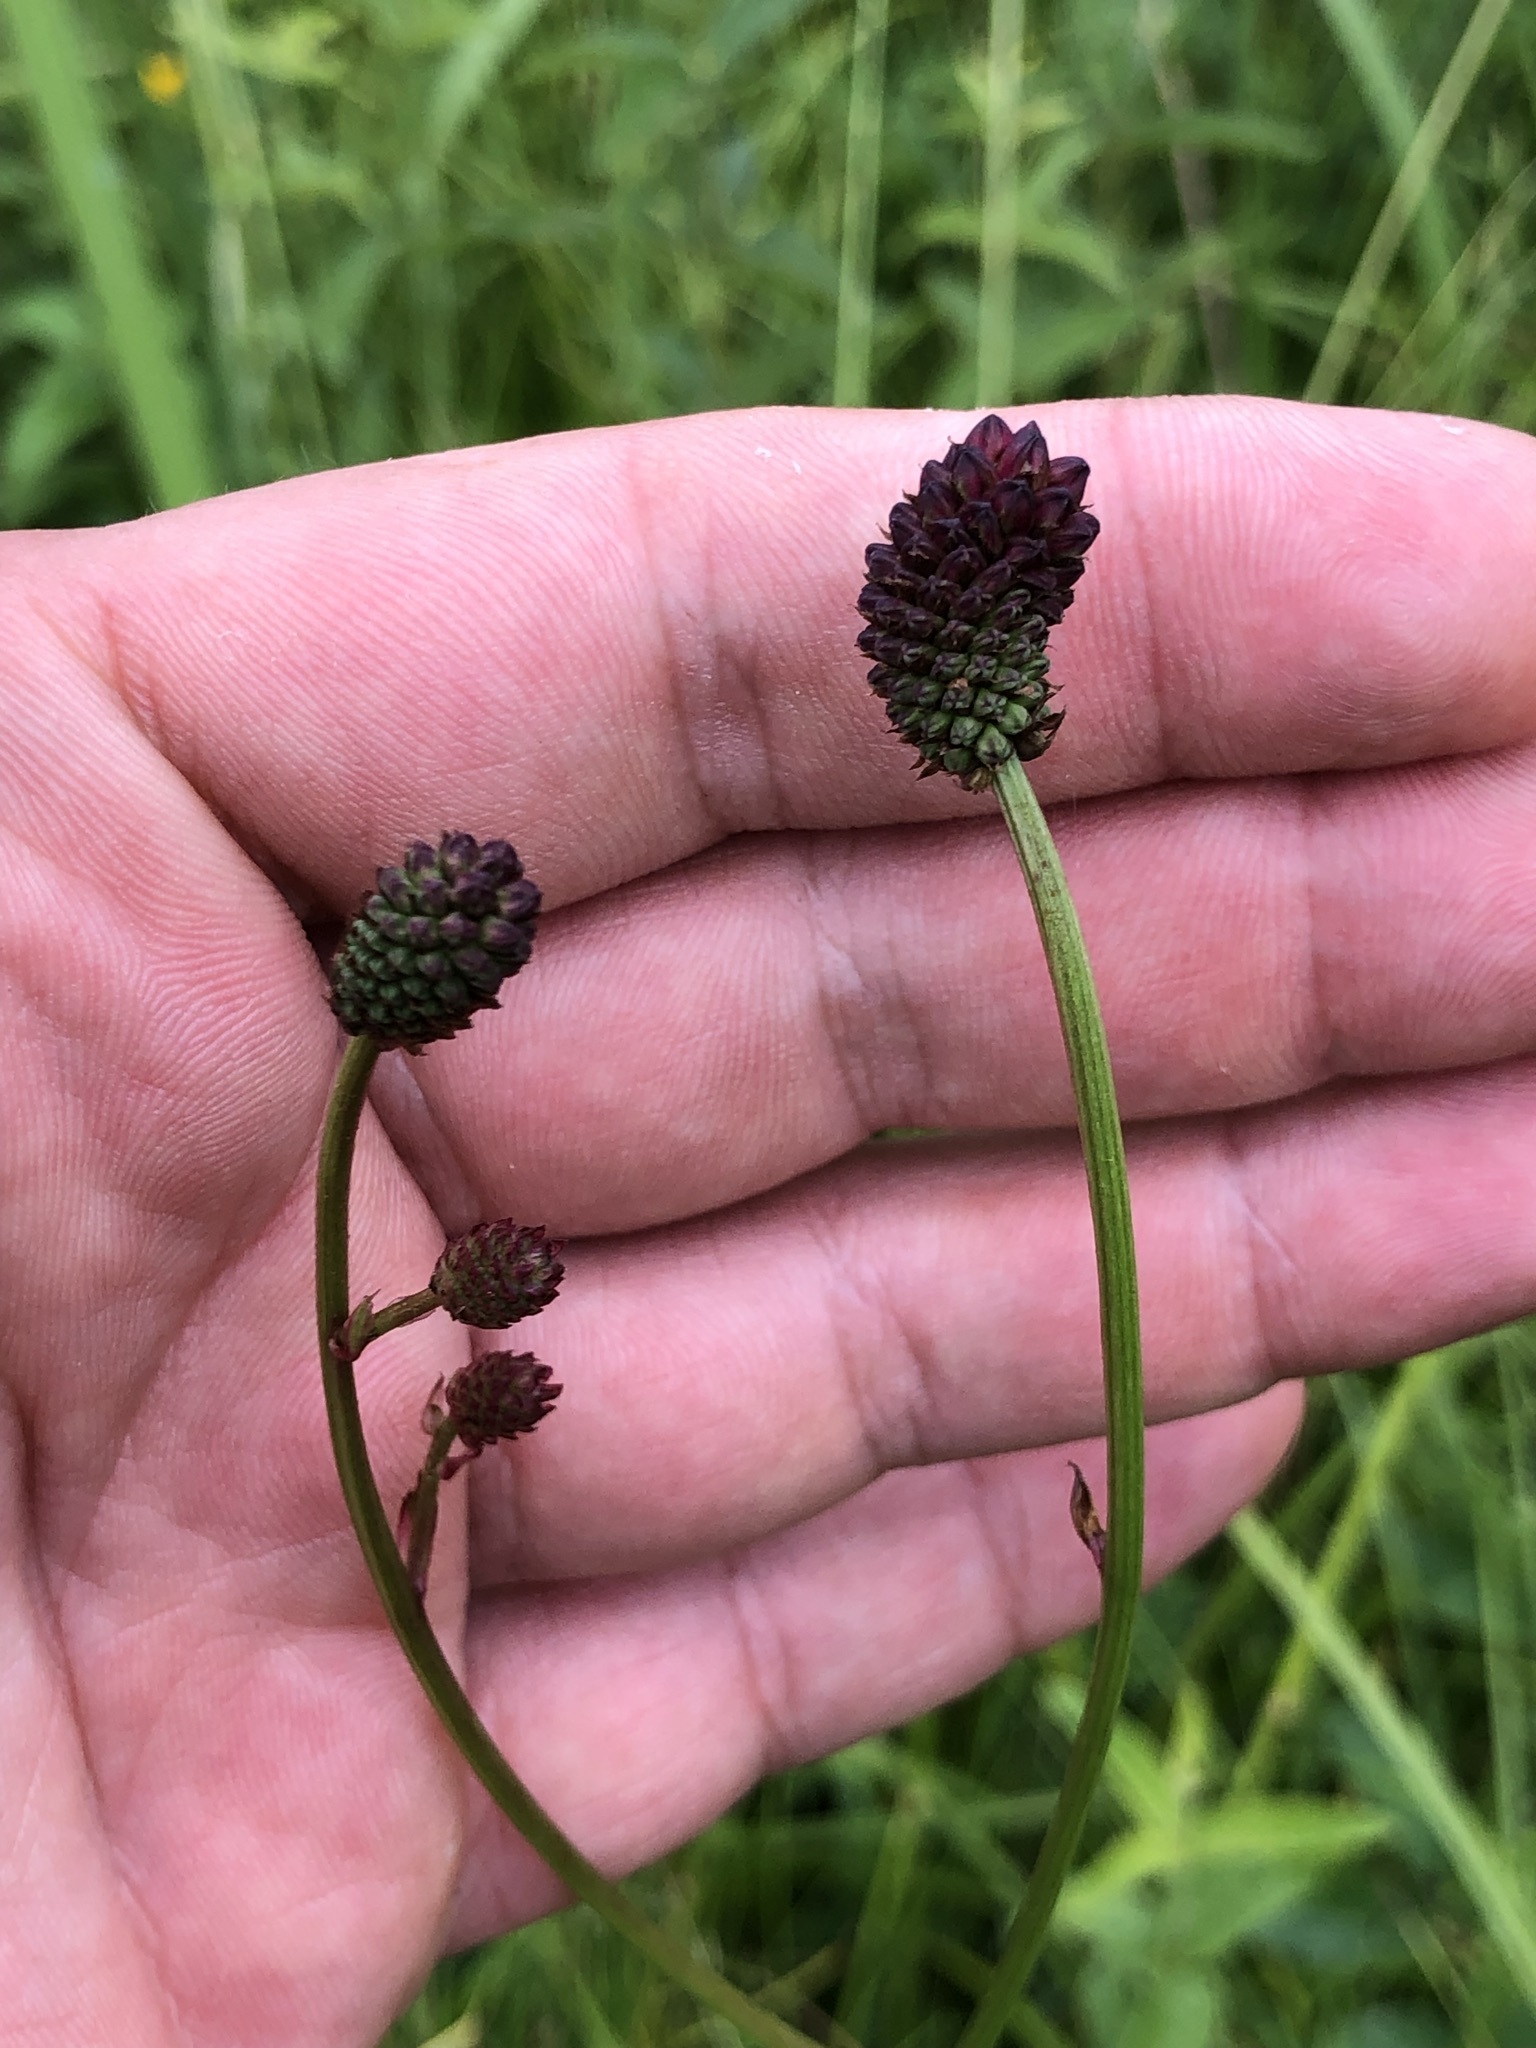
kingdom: Plantae
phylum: Tracheophyta
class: Magnoliopsida
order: Rosales
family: Rosaceae
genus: Sanguisorba
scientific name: Sanguisorba officinalis
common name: Great burnet
